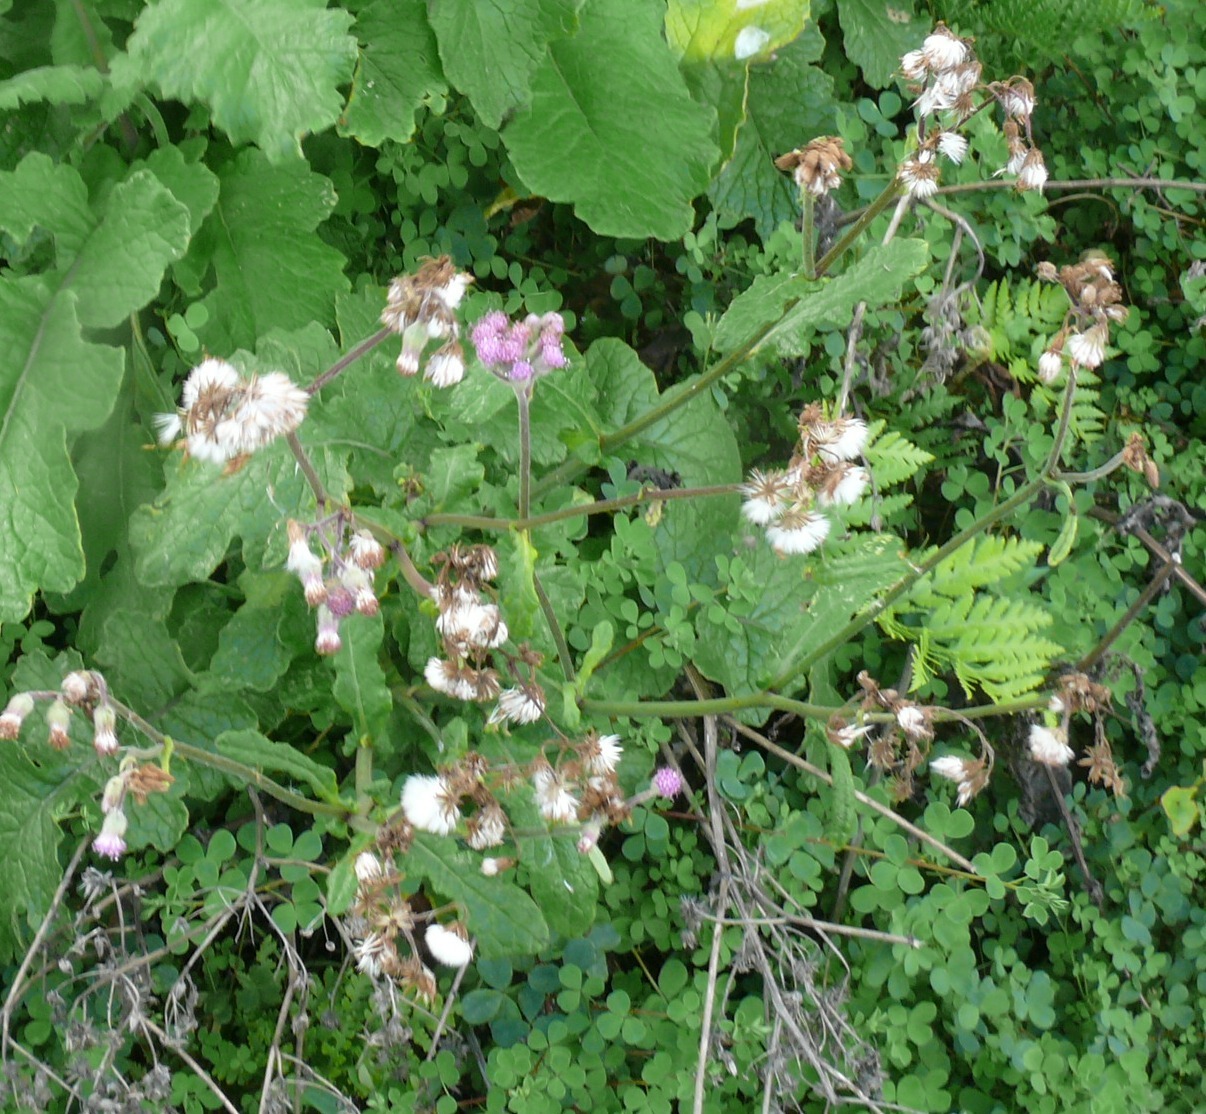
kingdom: Plantae
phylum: Tracheophyta
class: Magnoliopsida
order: Asterales
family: Asteraceae
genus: Senecio
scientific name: Senecio purpureus
